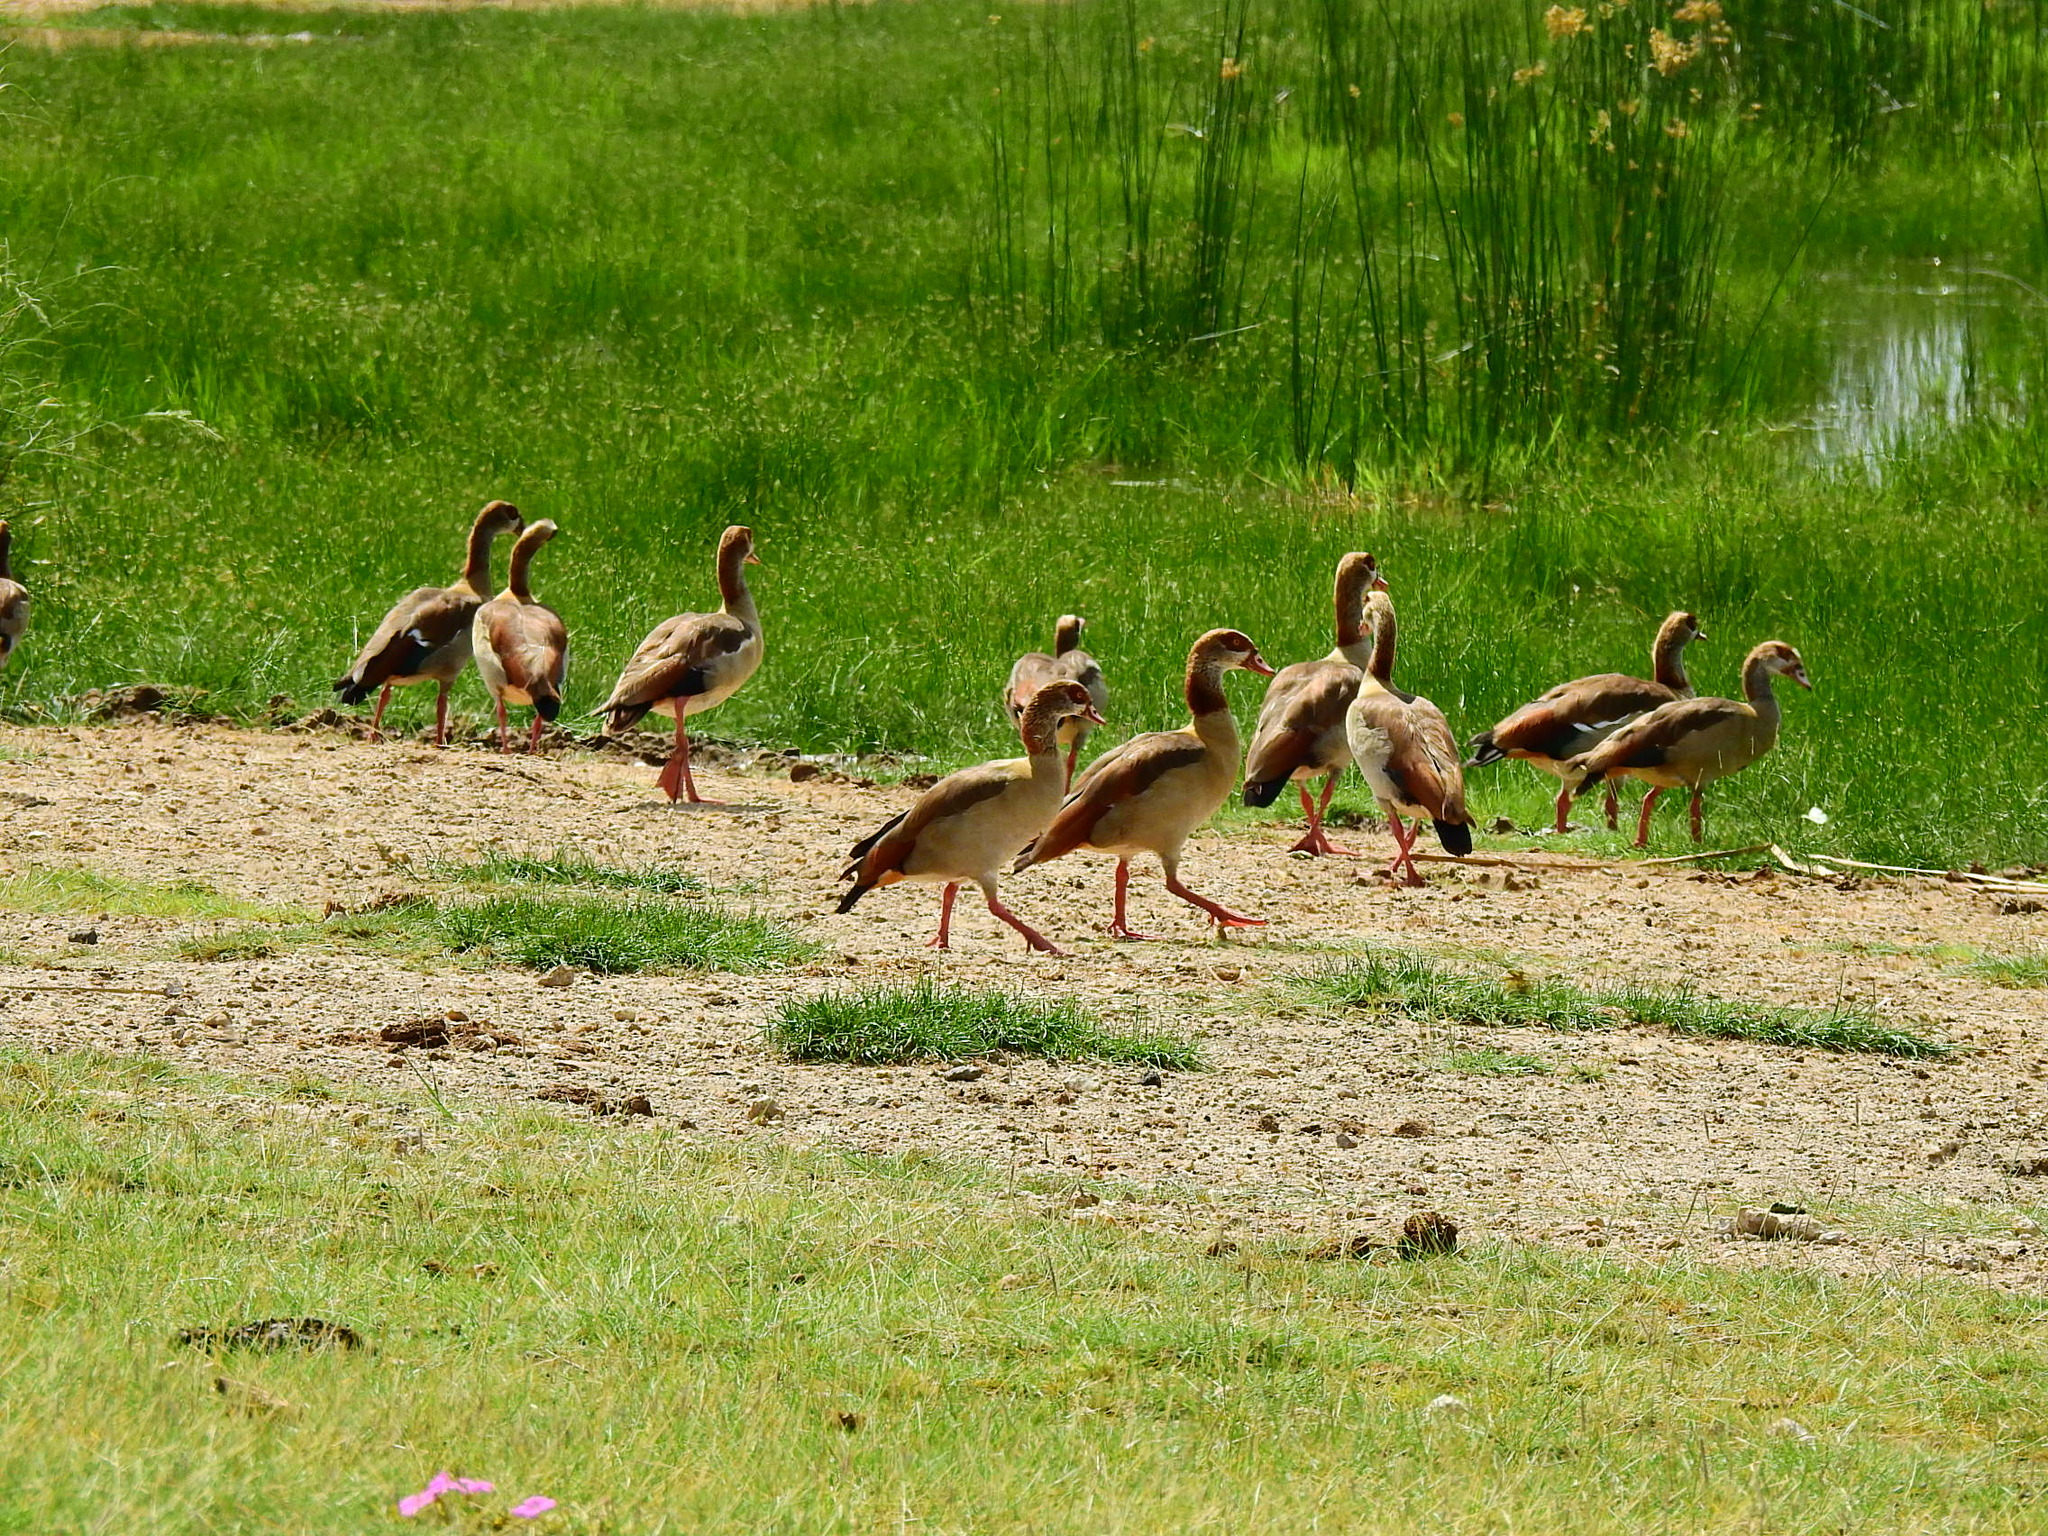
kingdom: Animalia
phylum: Chordata
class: Aves
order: Anseriformes
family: Anatidae
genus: Alopochen
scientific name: Alopochen aegyptiaca
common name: Egyptian goose
